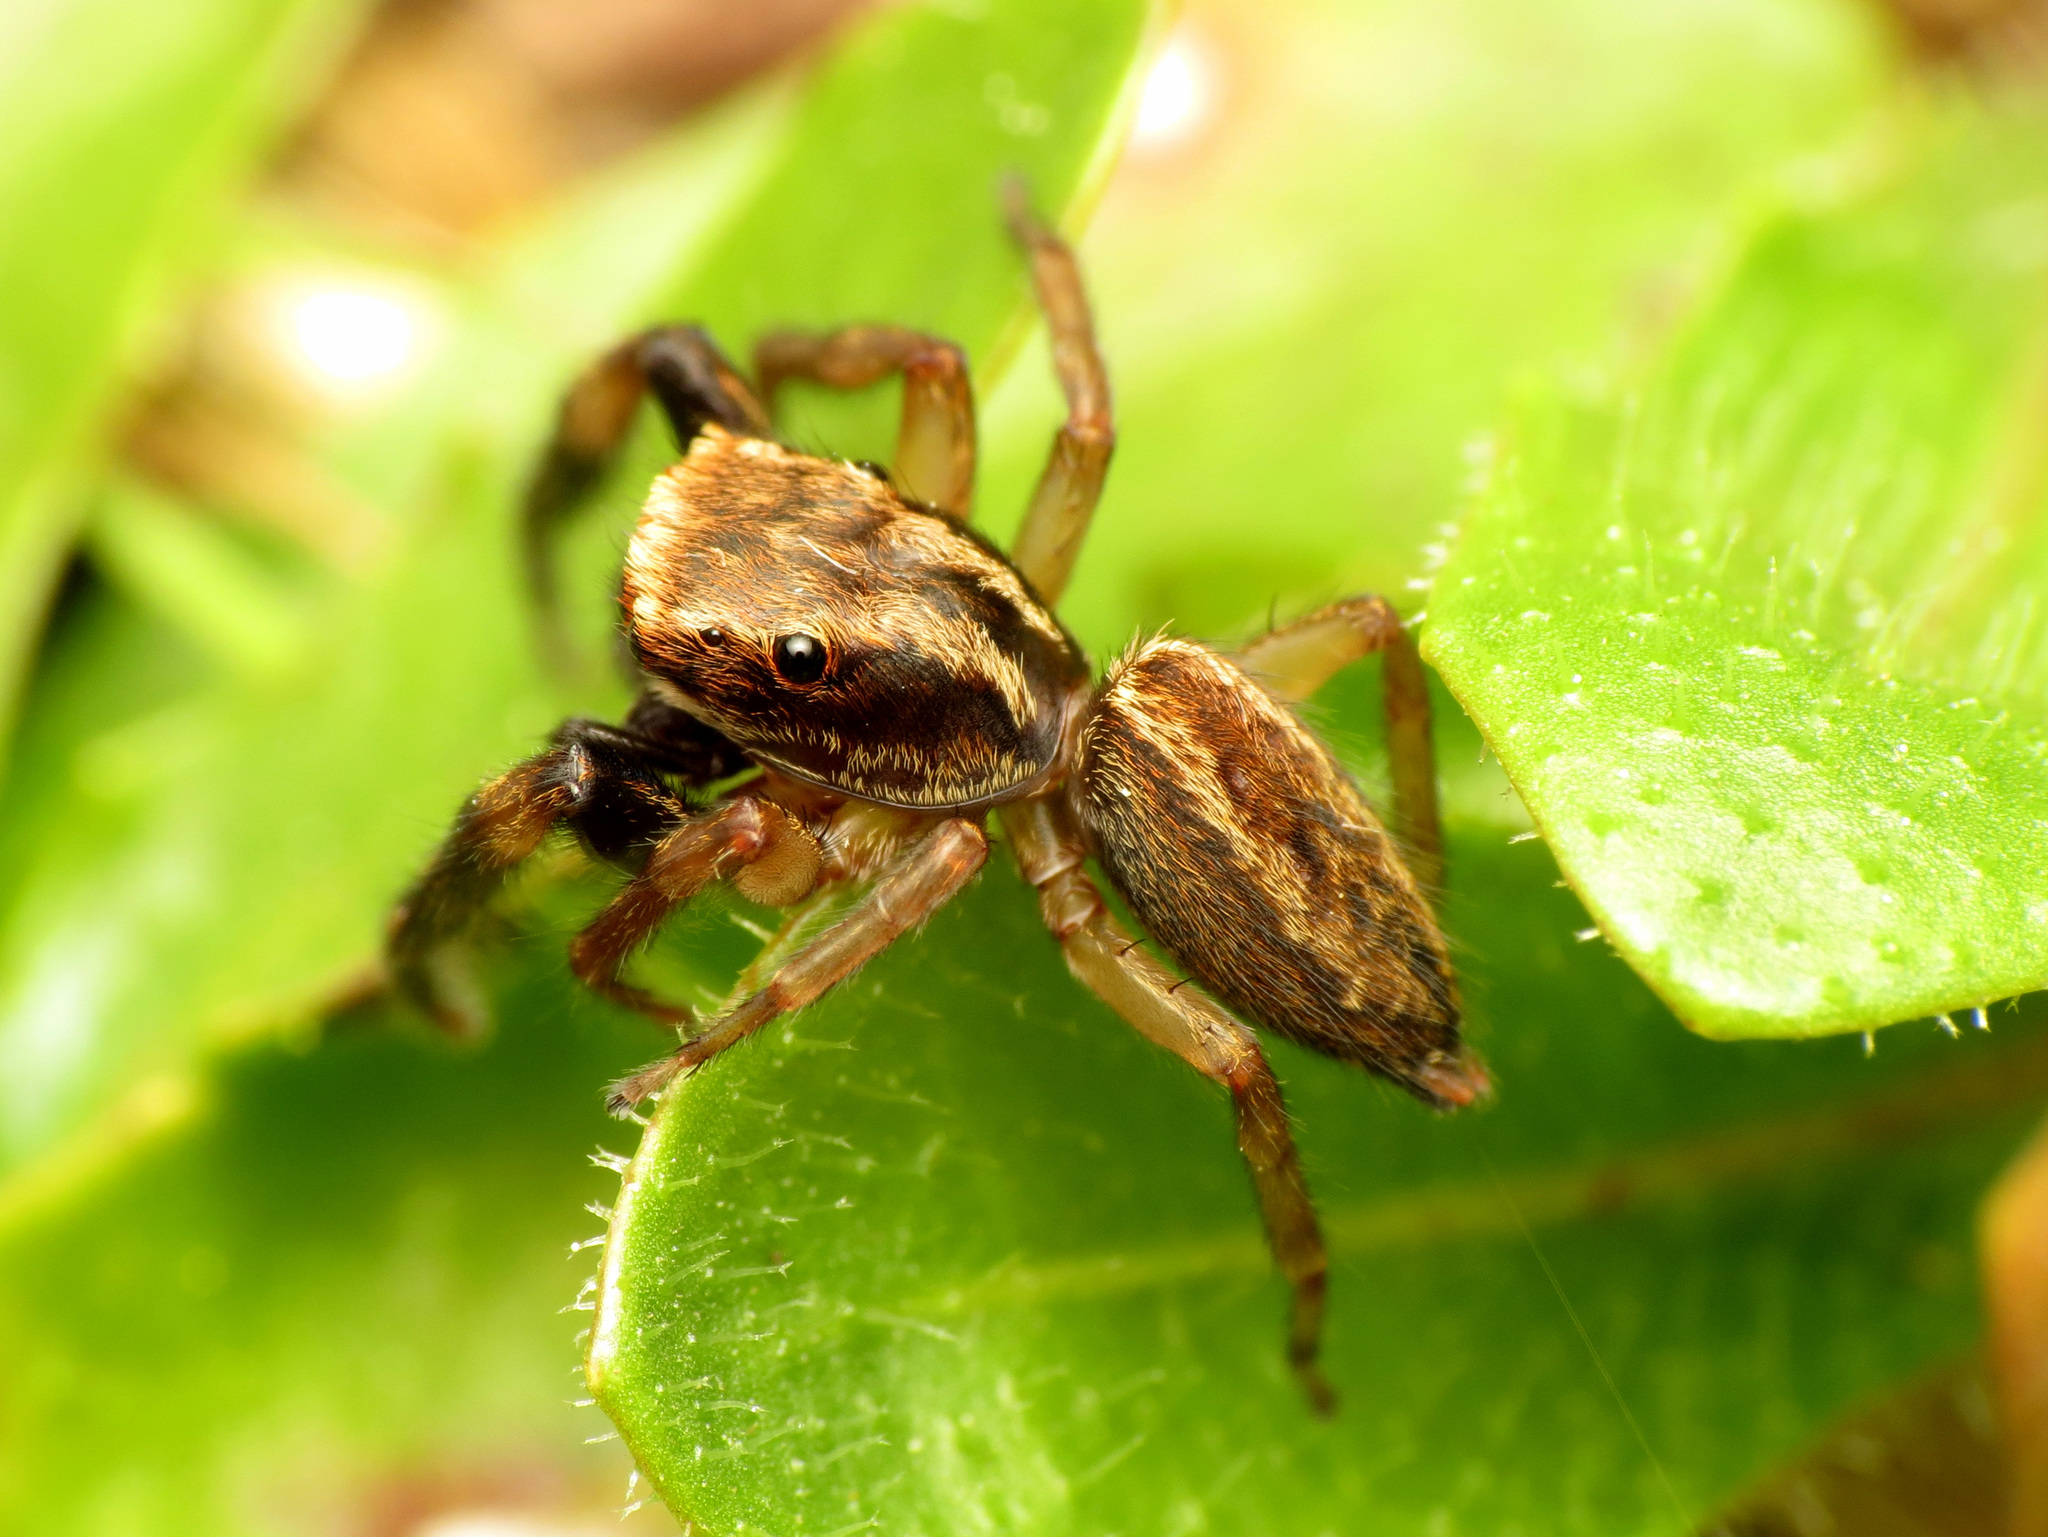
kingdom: Animalia
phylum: Arthropoda
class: Arachnida
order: Araneae
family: Salticidae
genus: Trite
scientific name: Trite auricoma
